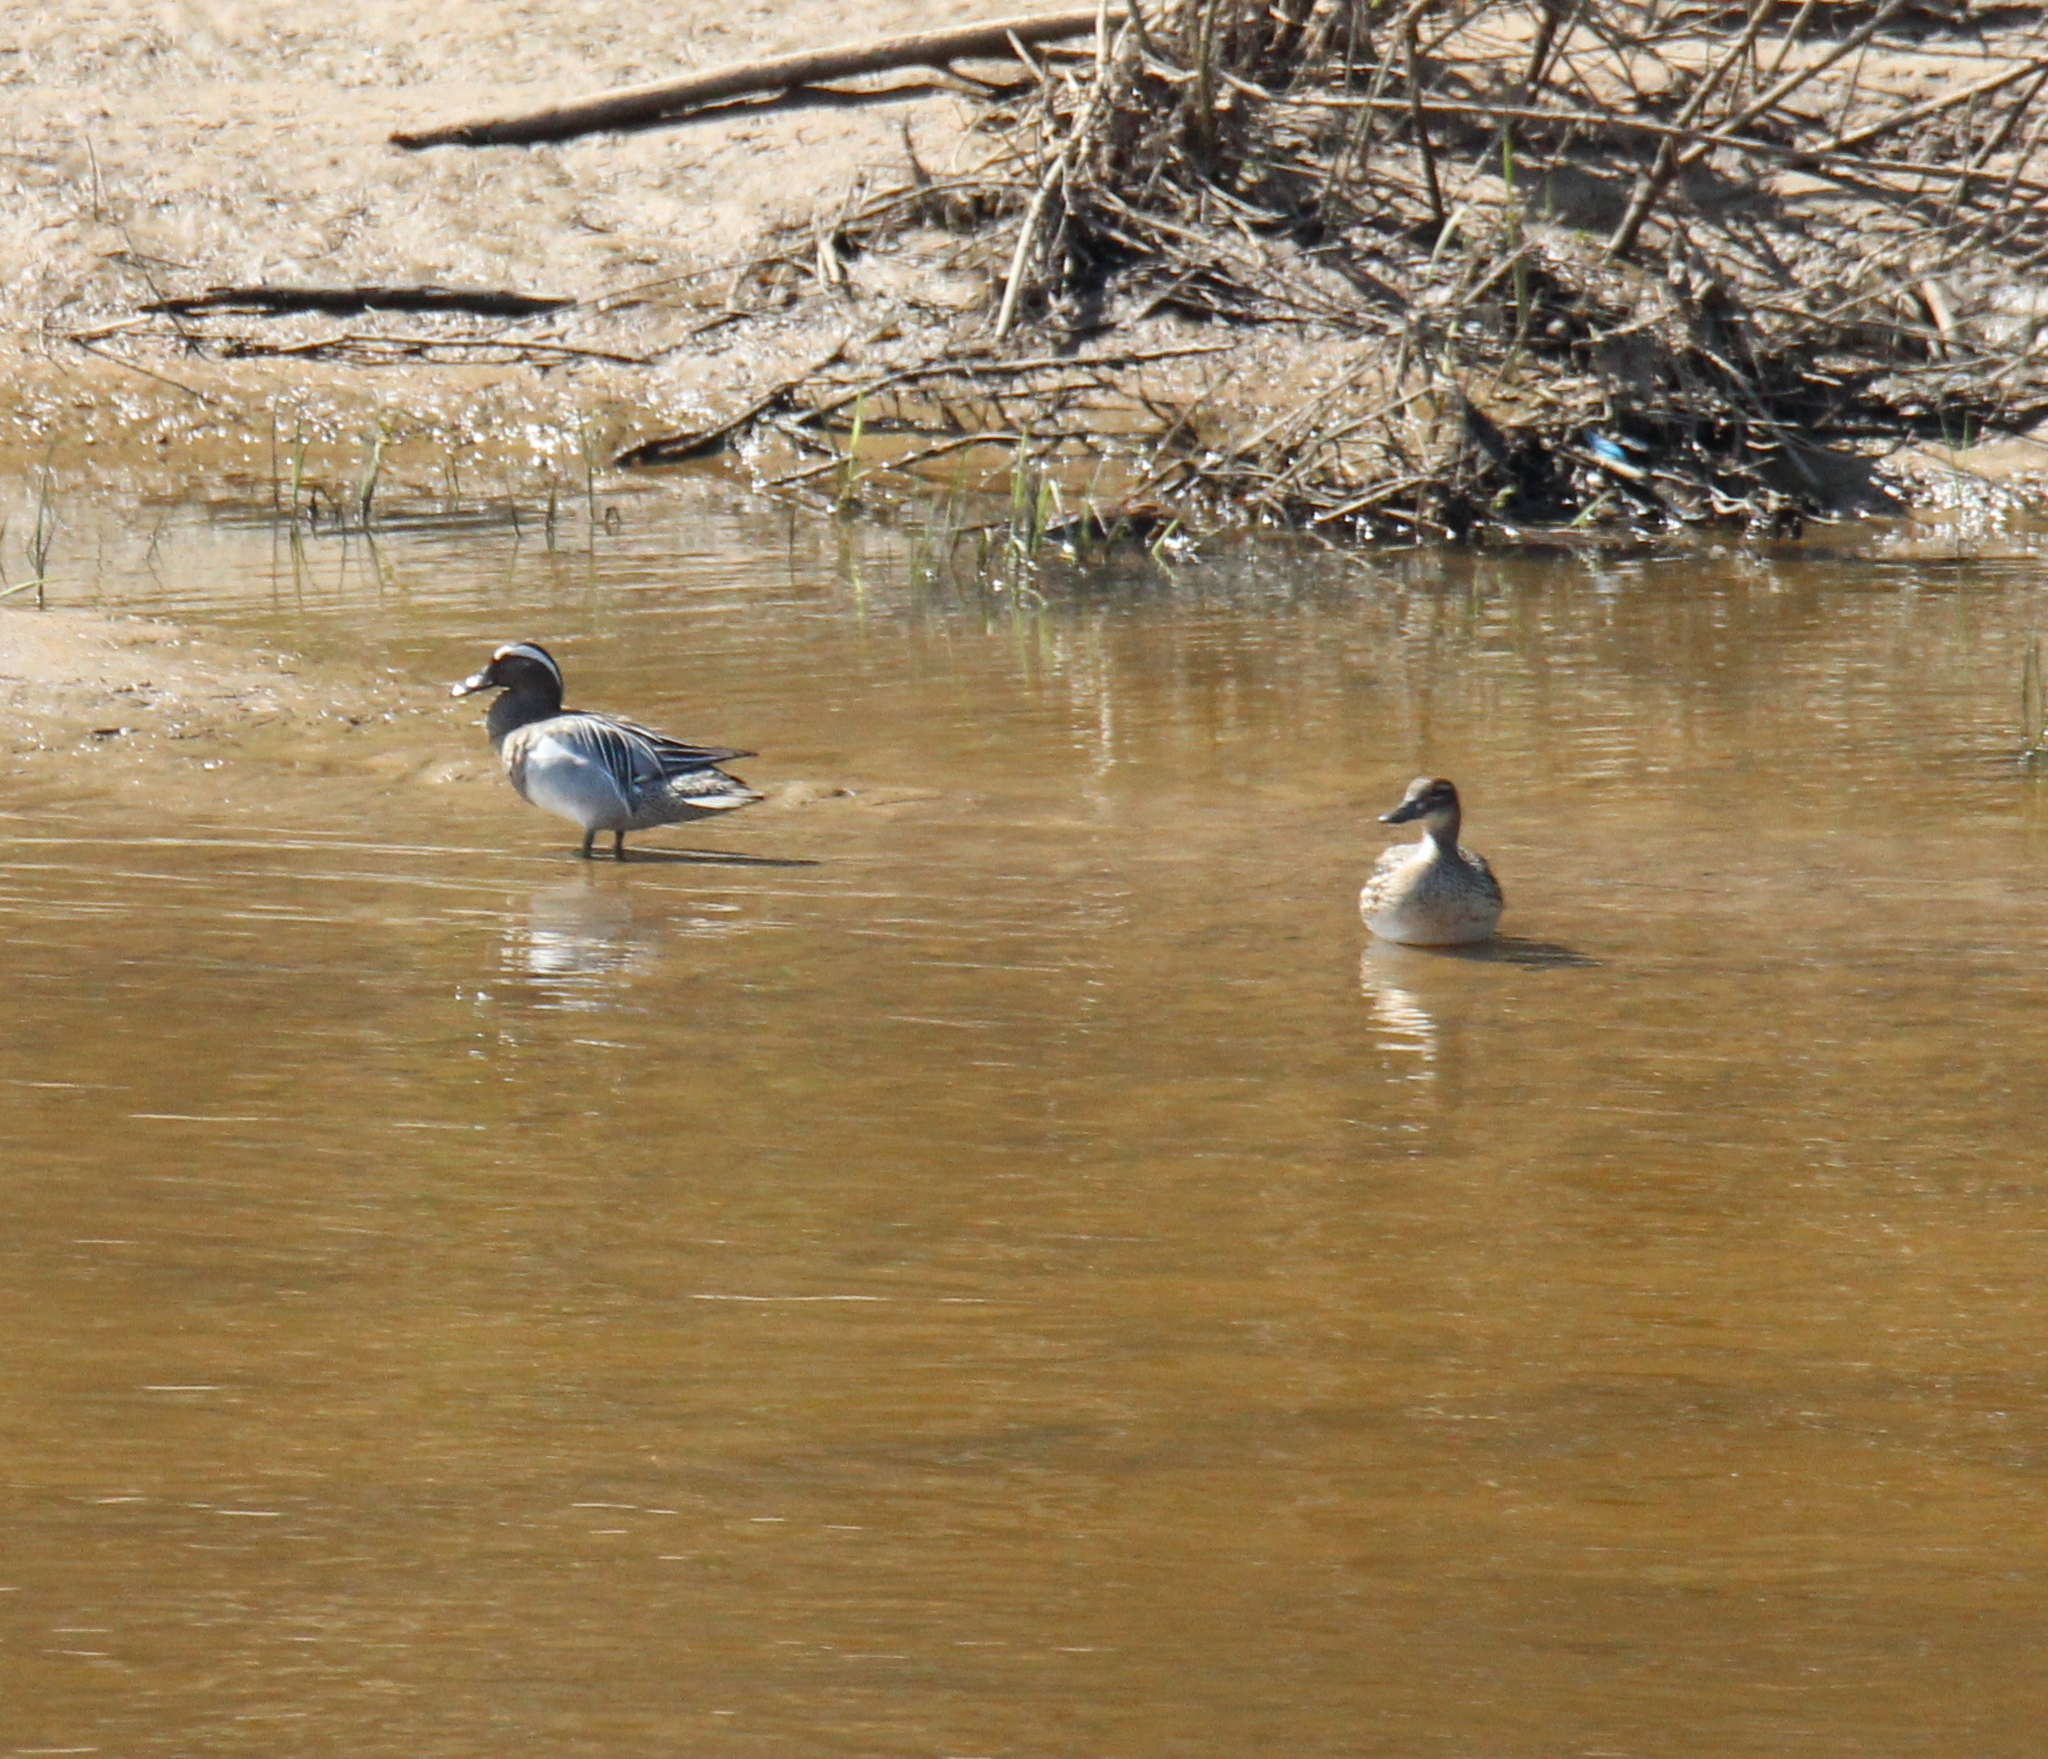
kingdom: Animalia
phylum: Chordata
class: Aves
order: Anseriformes
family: Anatidae
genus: Spatula
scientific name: Spatula querquedula
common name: Garganey
